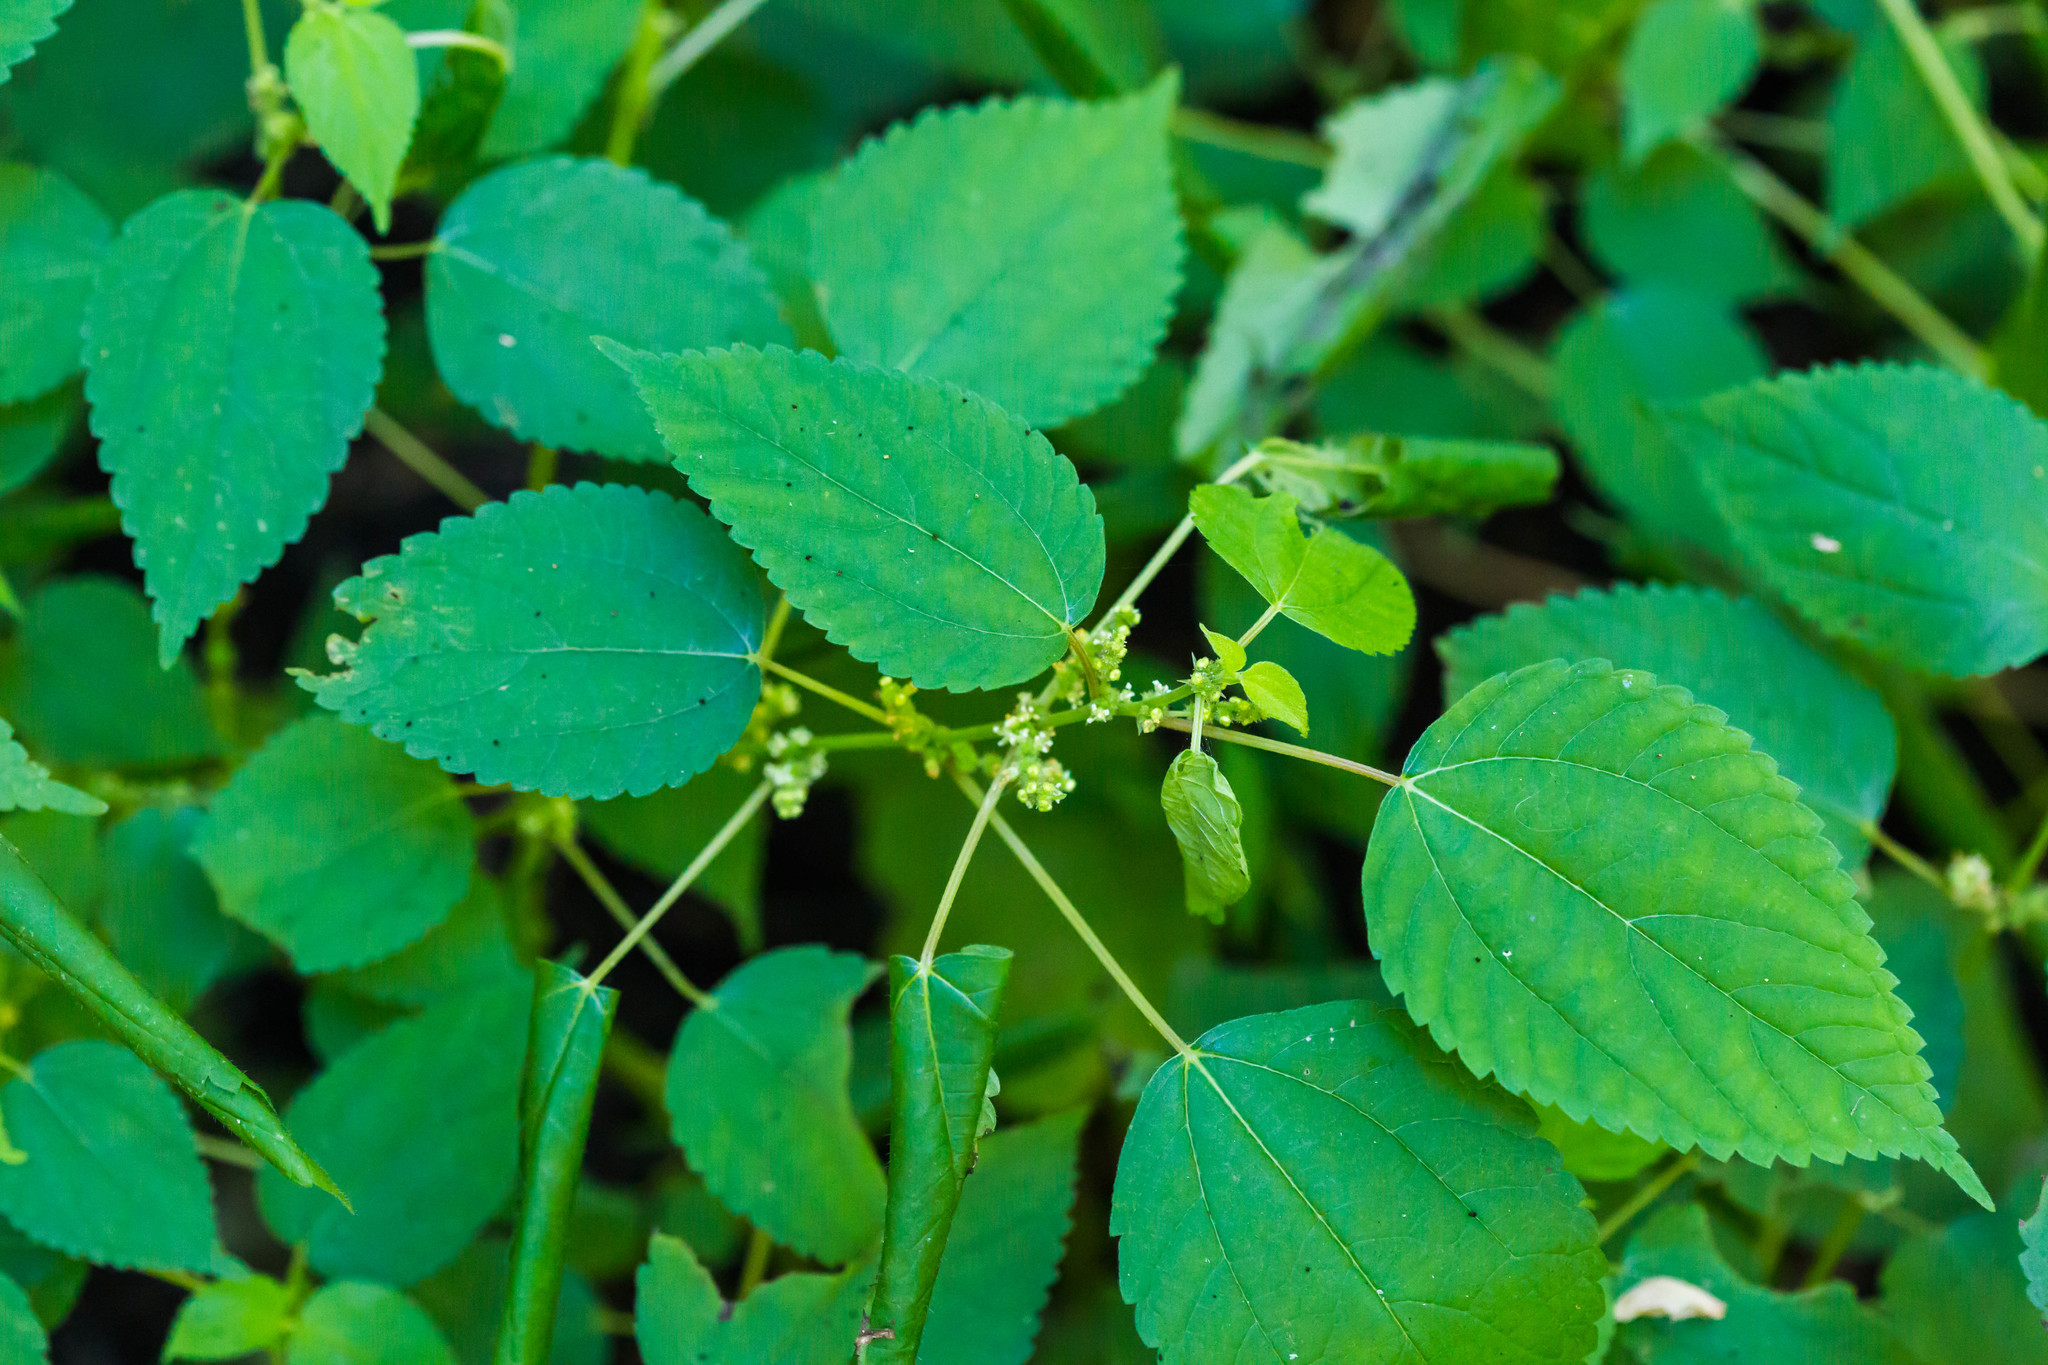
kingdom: Plantae
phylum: Tracheophyta
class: Magnoliopsida
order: Rosales
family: Urticaceae
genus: Boehmeria
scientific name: Boehmeria cylindrica
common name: Bog-hemp
